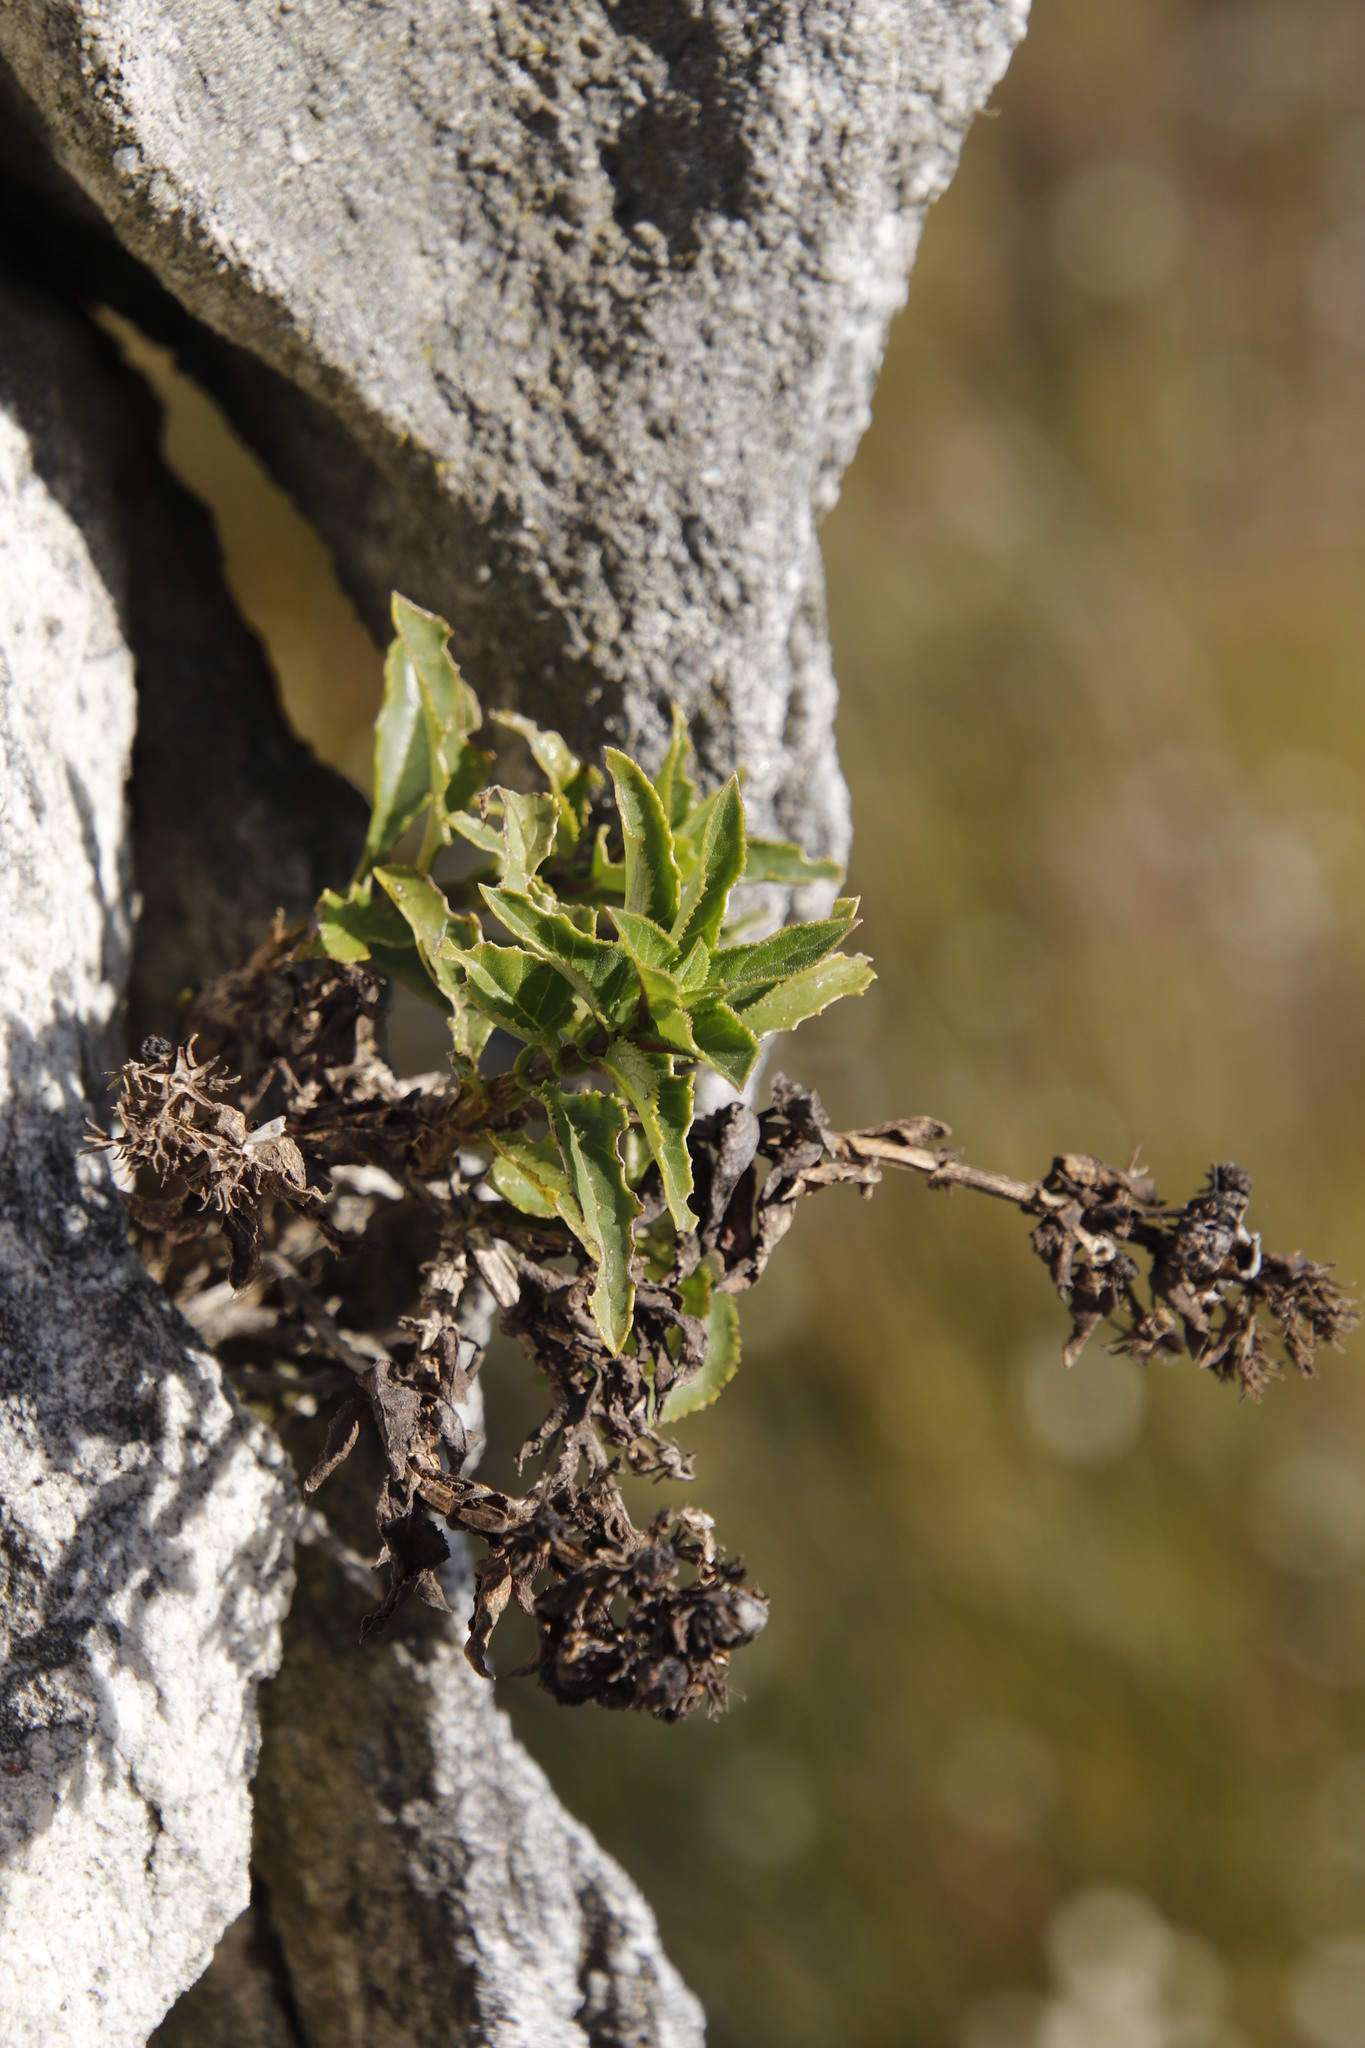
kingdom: Plantae
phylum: Tracheophyta
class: Magnoliopsida
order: Lamiales
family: Scrophulariaceae
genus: Teedia
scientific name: Teedia lucida
